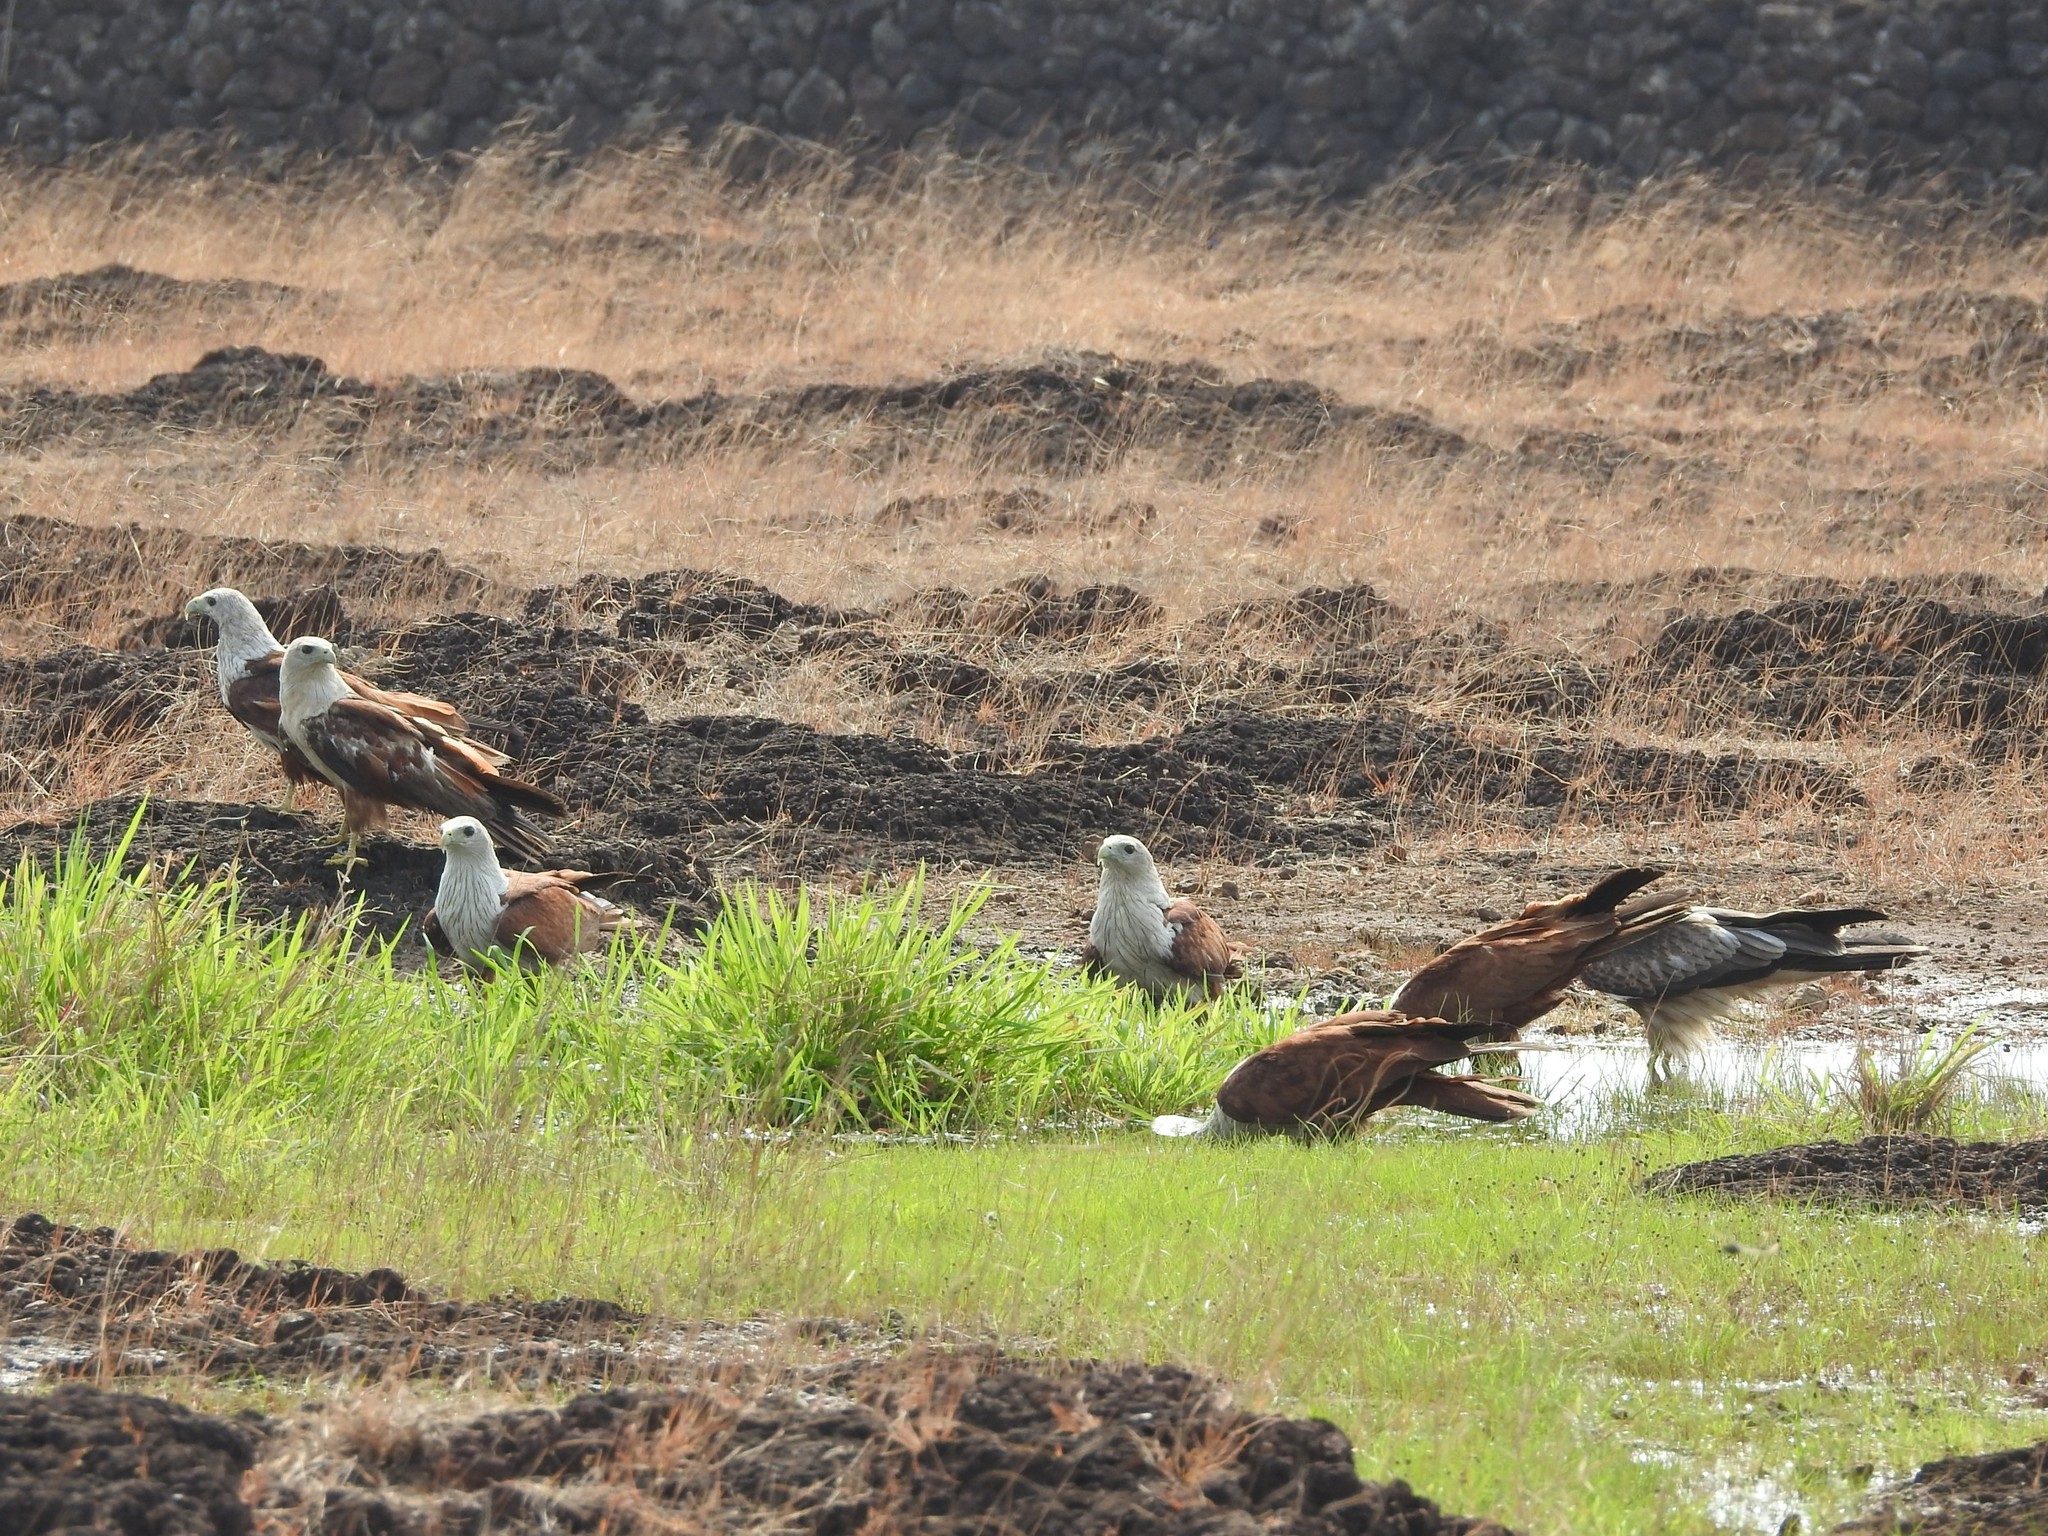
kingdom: Animalia
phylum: Chordata
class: Aves
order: Accipitriformes
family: Accipitridae
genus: Haliastur
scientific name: Haliastur indus
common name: Brahminy kite
